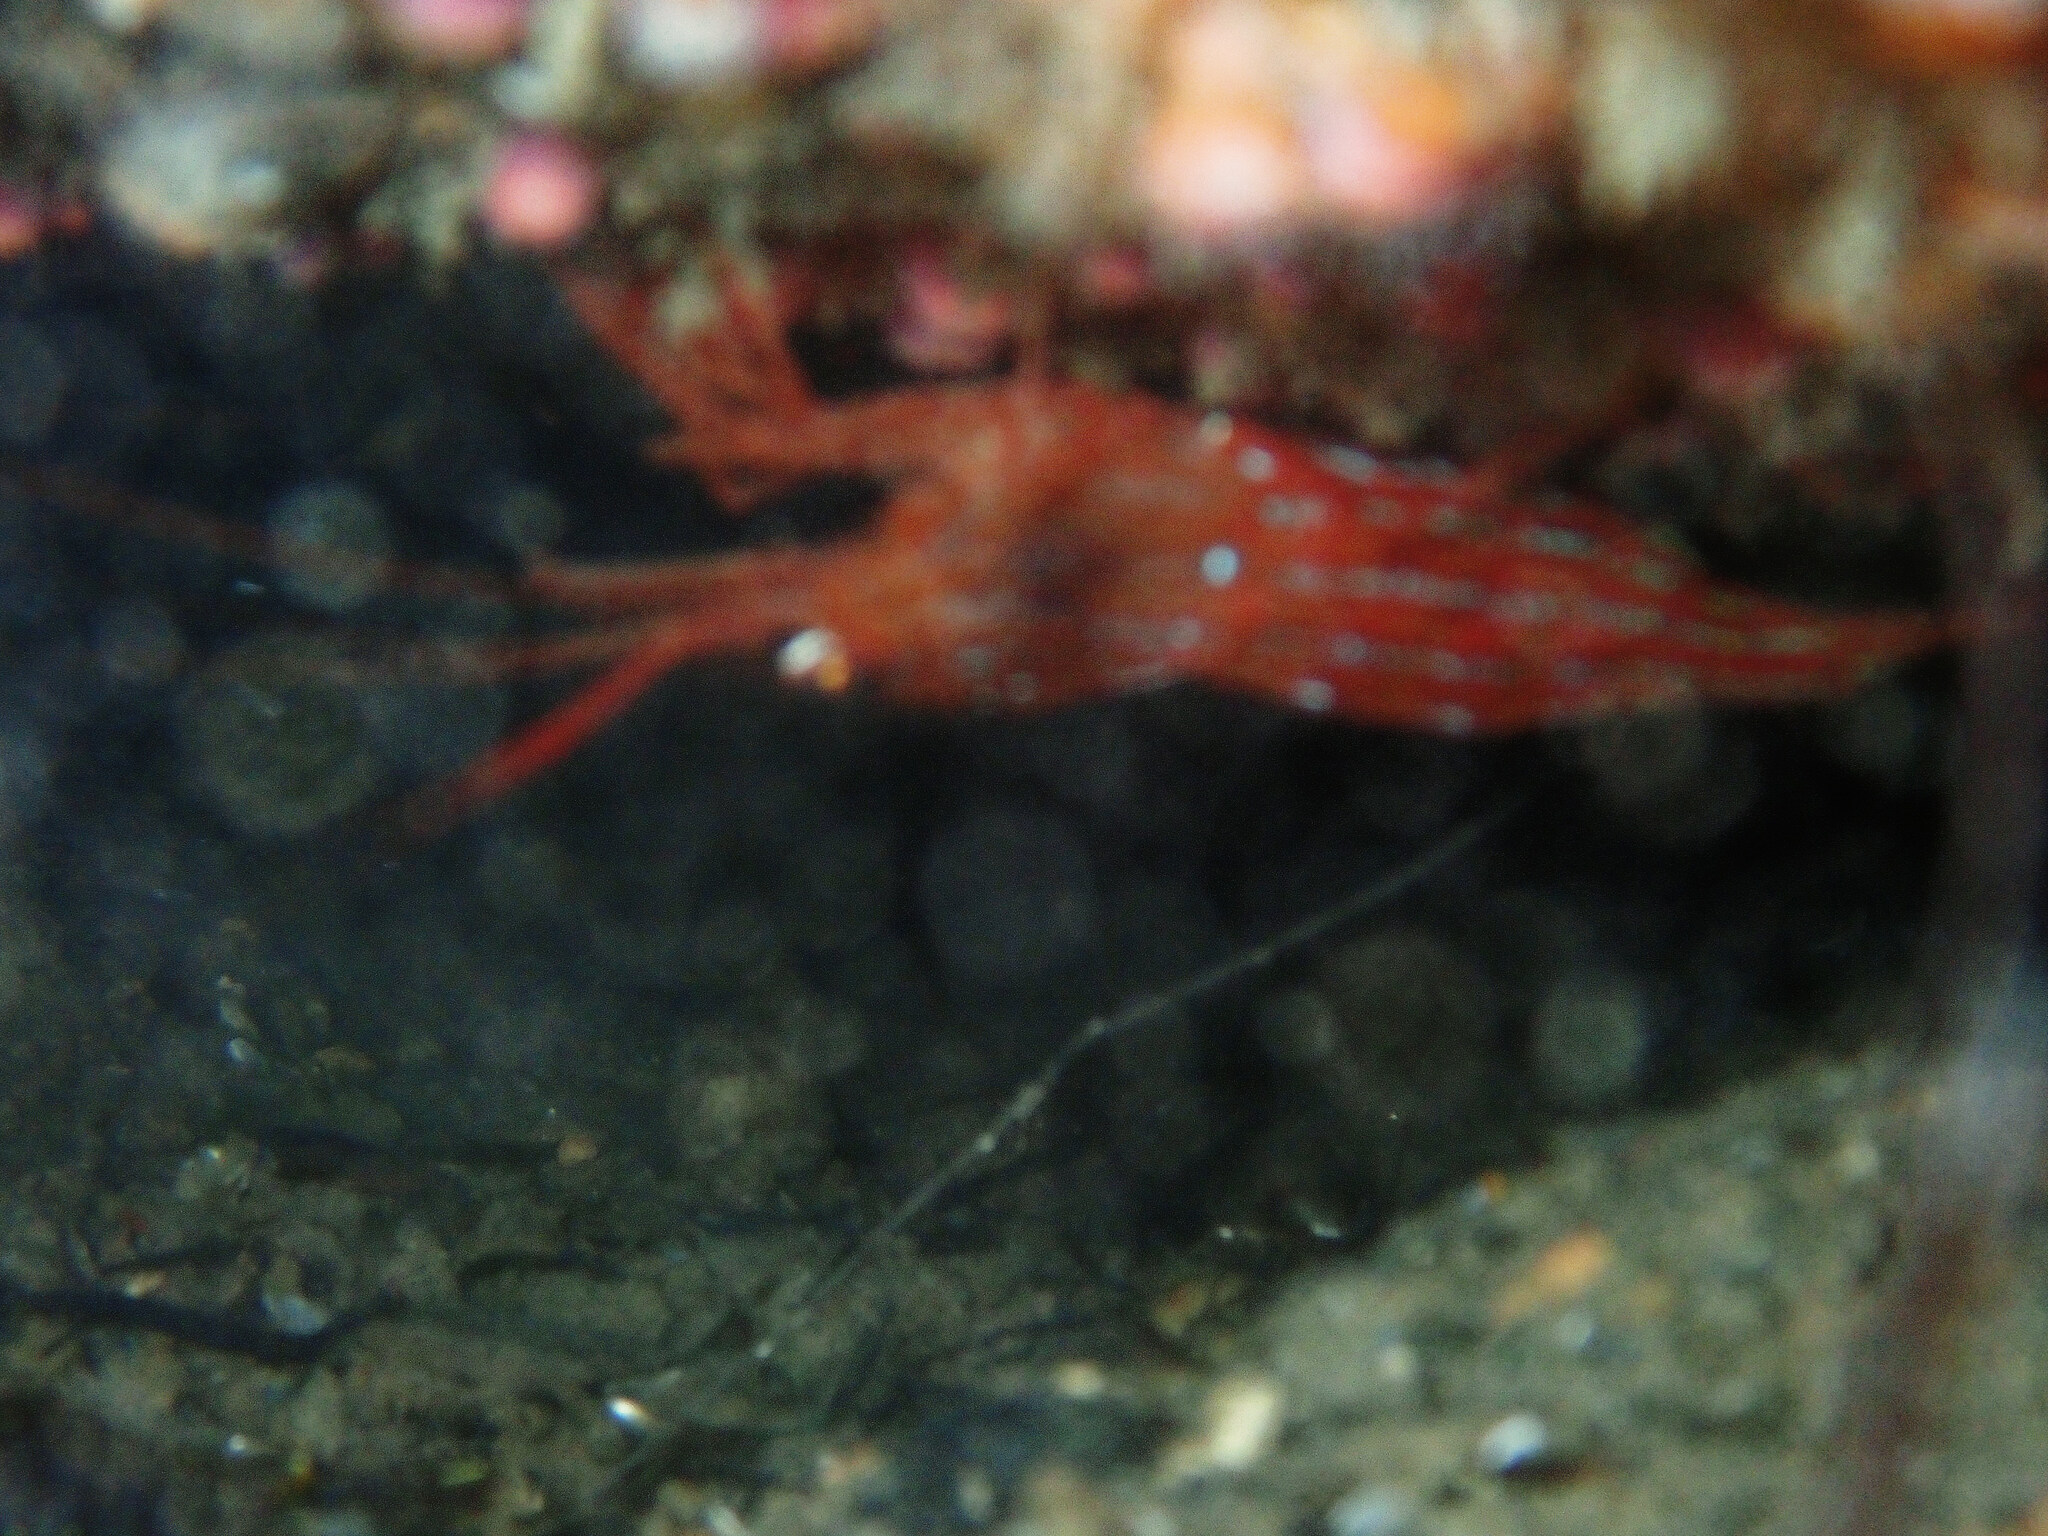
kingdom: Animalia
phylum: Arthropoda
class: Malacostraca
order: Decapoda
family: Lysmatidae
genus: Lysmata
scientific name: Lysmata seticaudata
